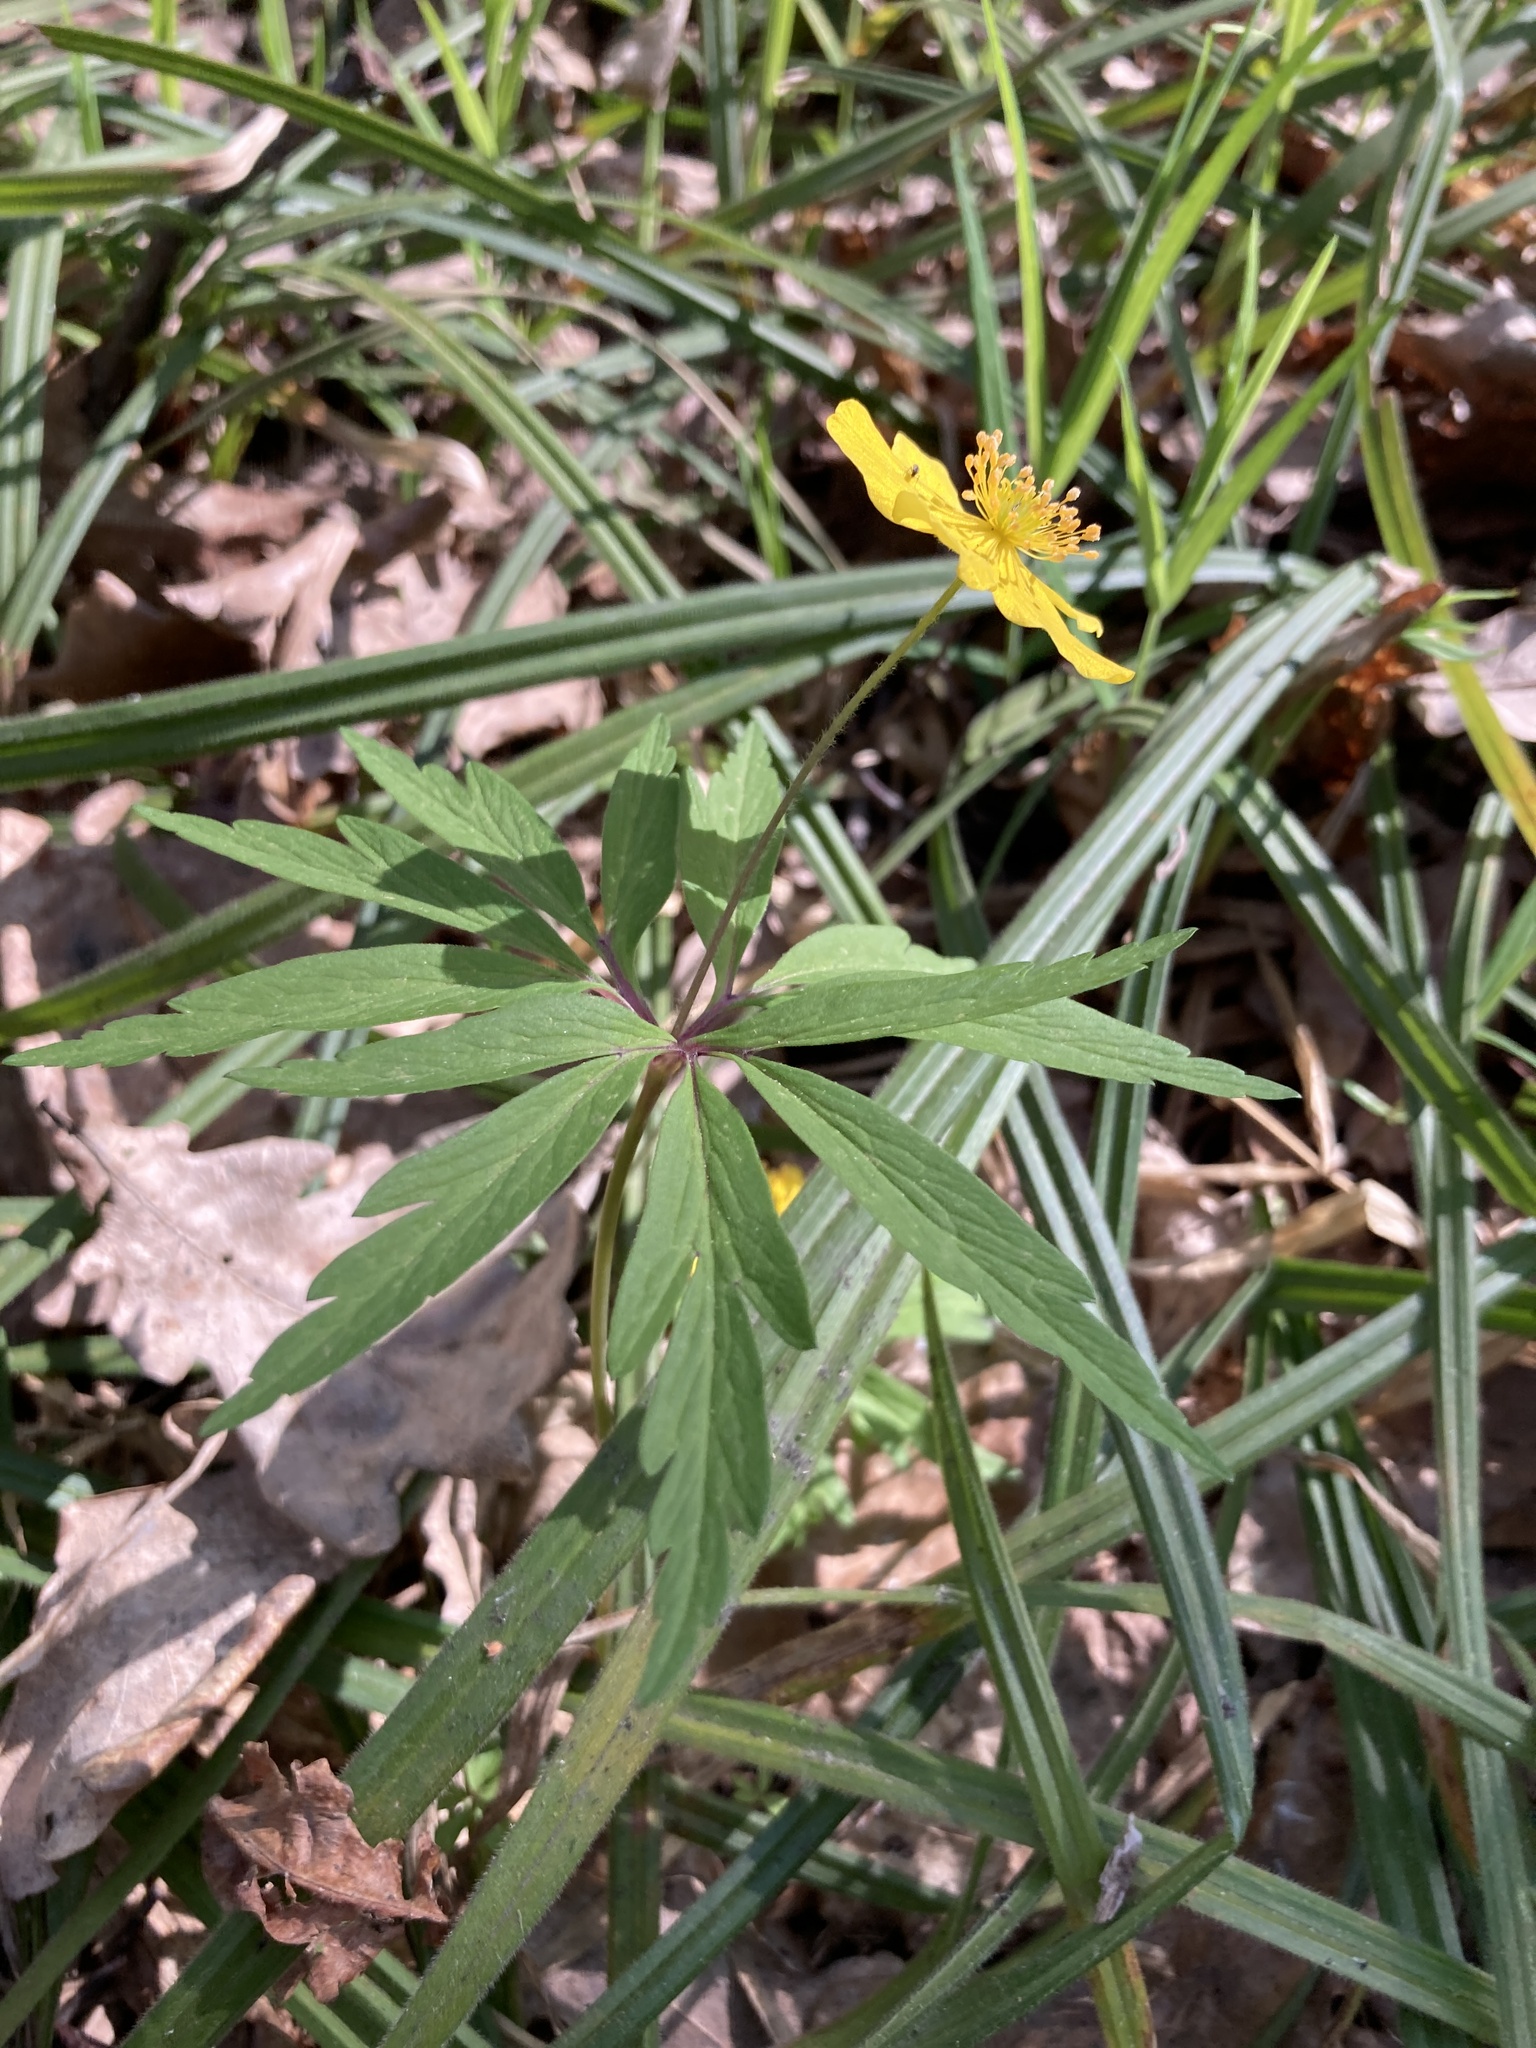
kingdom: Plantae
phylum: Tracheophyta
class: Magnoliopsida
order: Ranunculales
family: Ranunculaceae
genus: Anemone
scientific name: Anemone ranunculoides
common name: Yellow anemone
